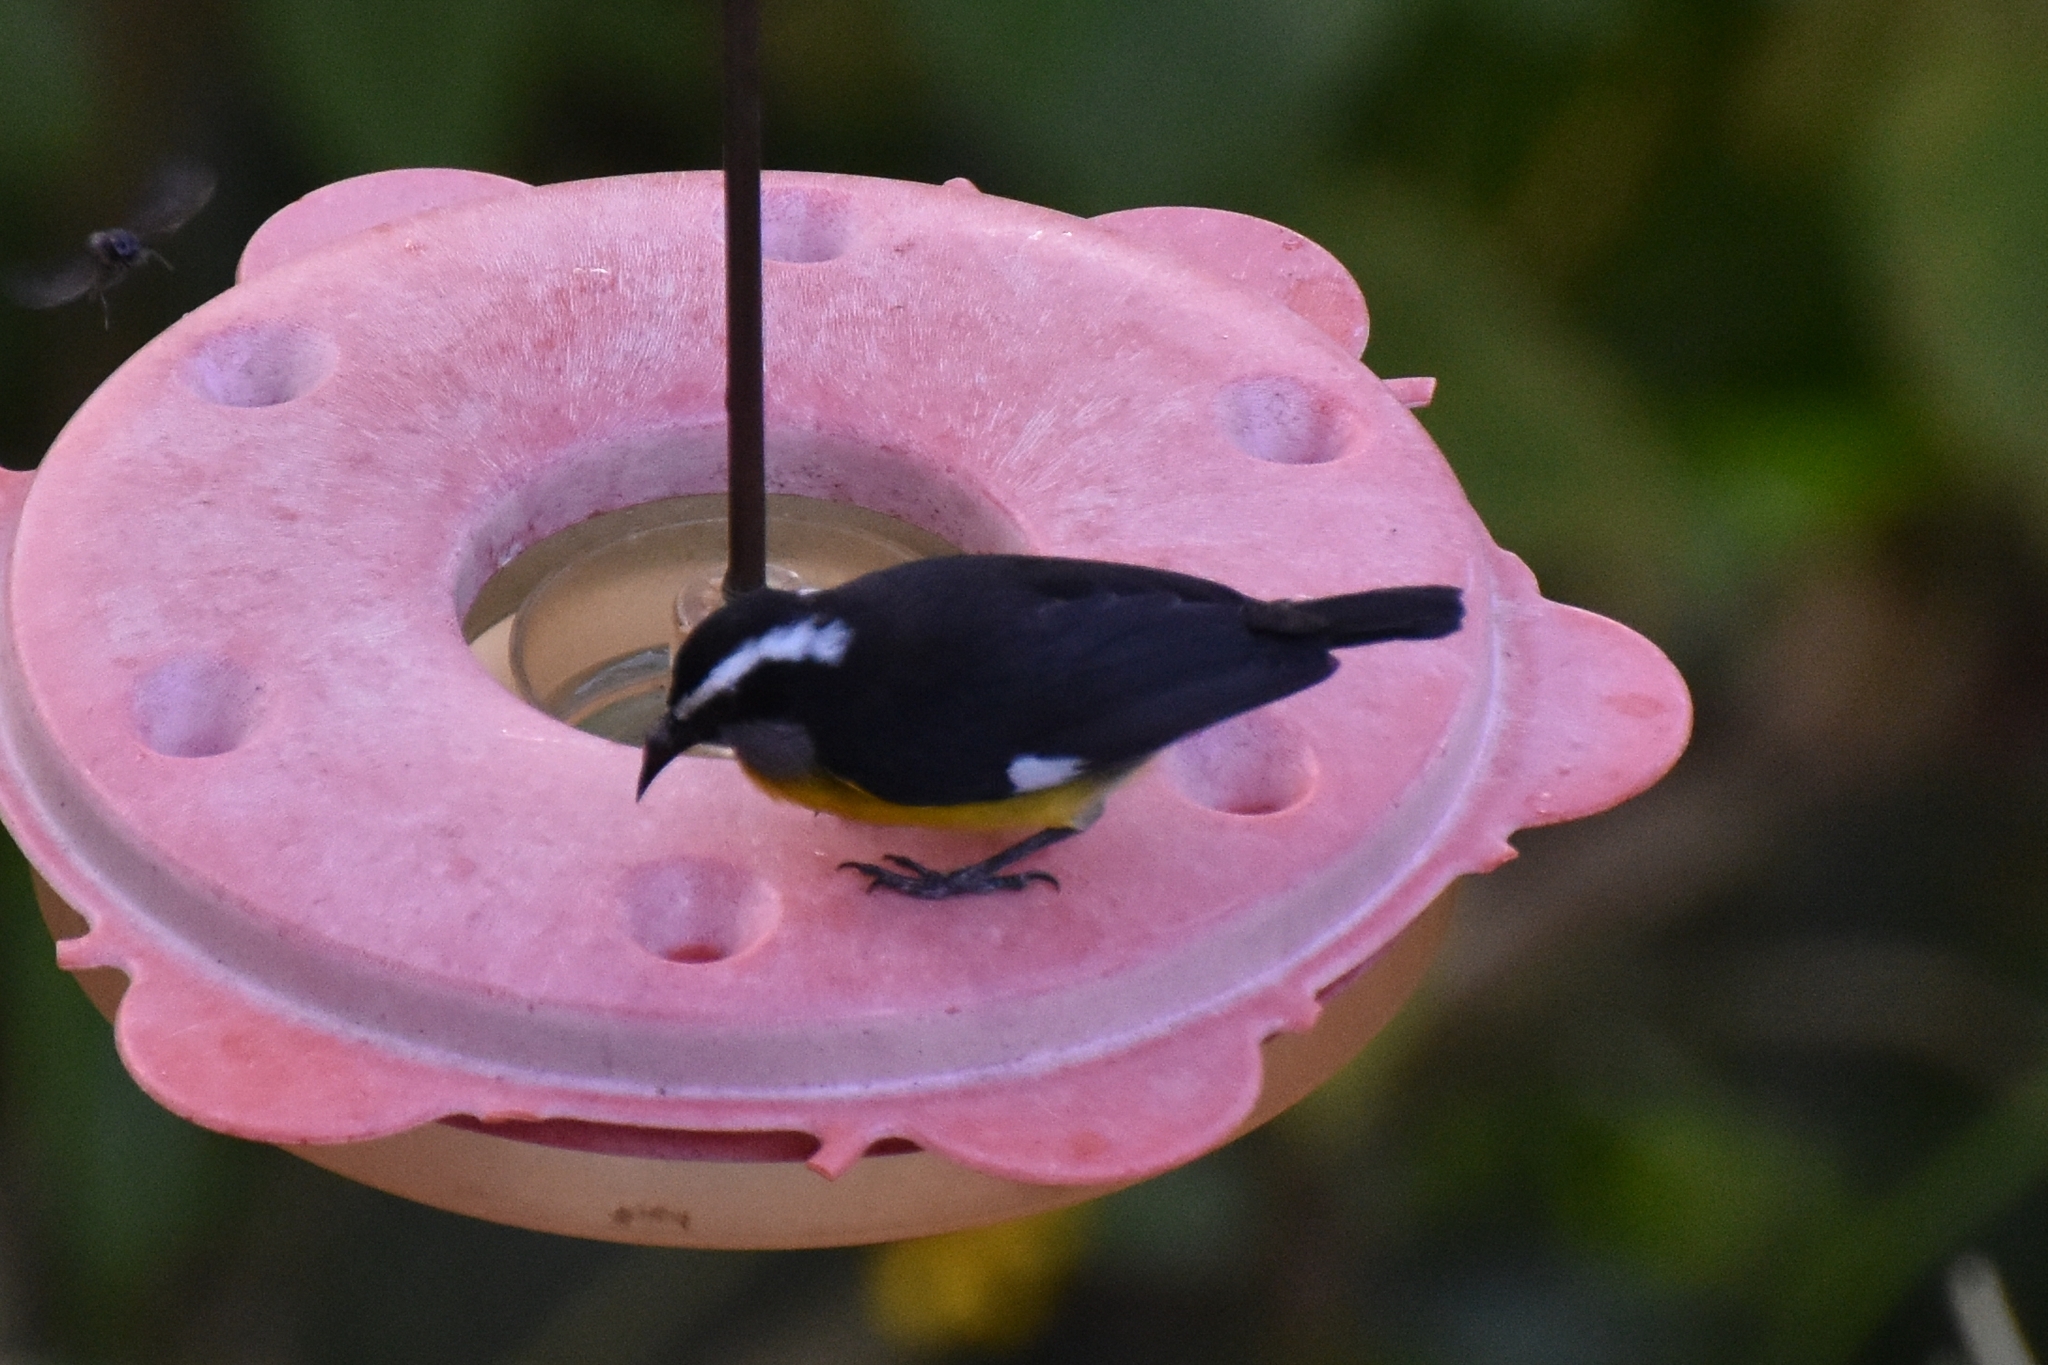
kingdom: Animalia
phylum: Chordata
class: Aves
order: Passeriformes
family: Thraupidae
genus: Coereba
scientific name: Coereba flaveola
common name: Bananaquit
